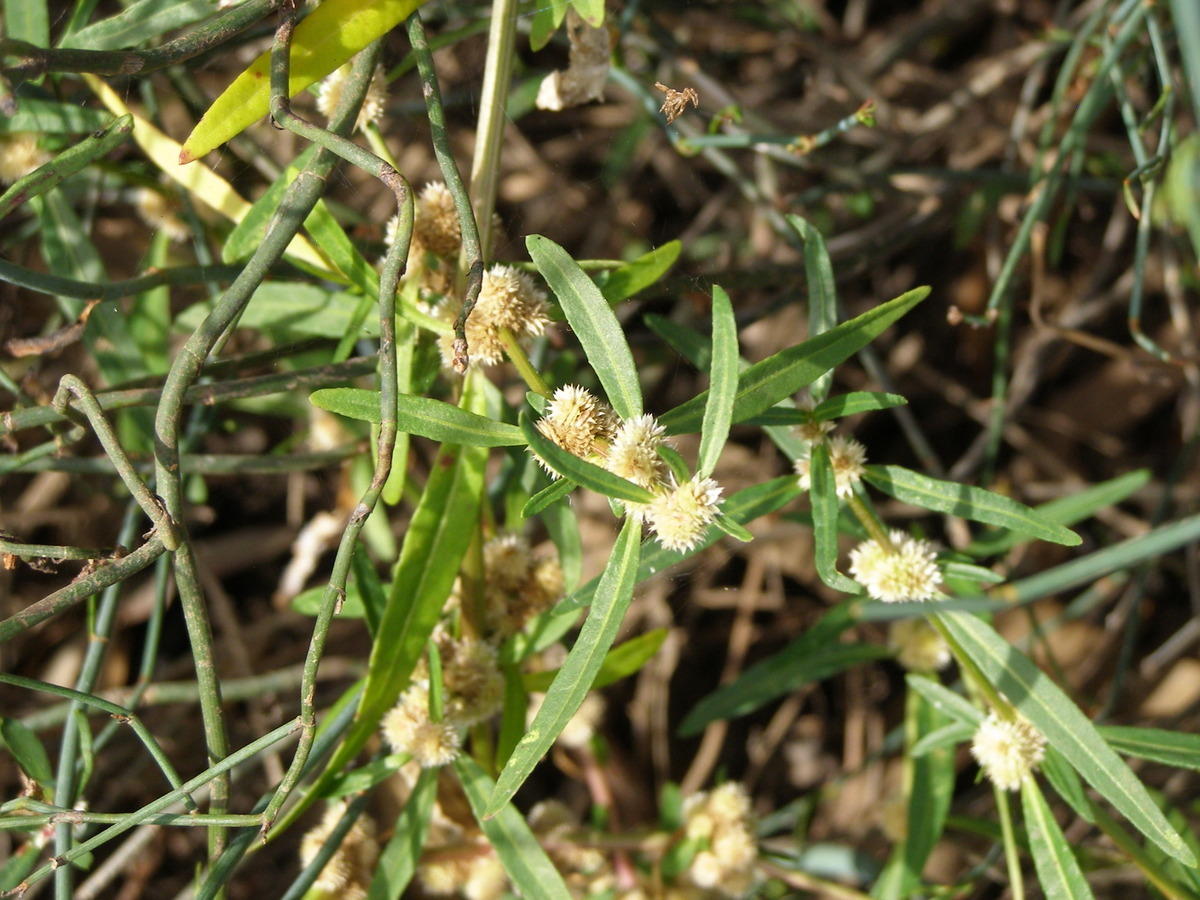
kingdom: Plantae
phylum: Tracheophyta
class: Magnoliopsida
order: Caryophyllales
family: Amaranthaceae
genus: Alternanthera
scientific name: Alternanthera denticulata
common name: Lesser joyweed
